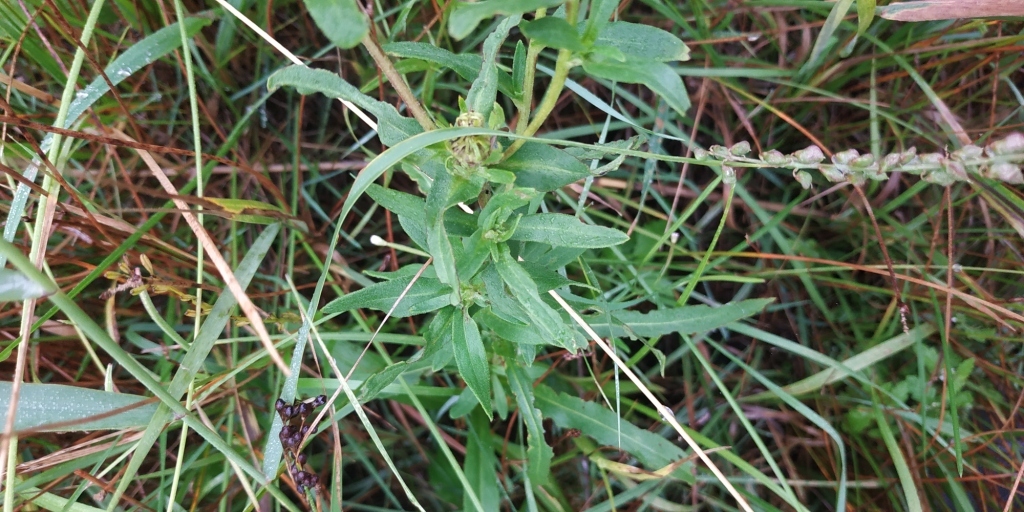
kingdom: Plantae
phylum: Tracheophyta
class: Magnoliopsida
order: Asterales
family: Asteraceae
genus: Pentanema
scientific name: Pentanema britannicum
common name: British elecampane
